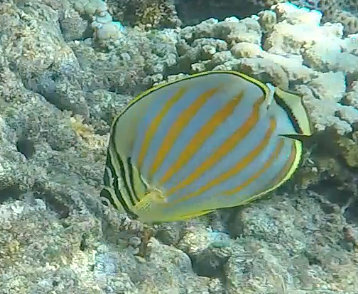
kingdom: Animalia
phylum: Chordata
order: Perciformes
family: Chaetodontidae
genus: Chaetodon
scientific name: Chaetodon ornatissimus
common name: Ornate butterflyfish
